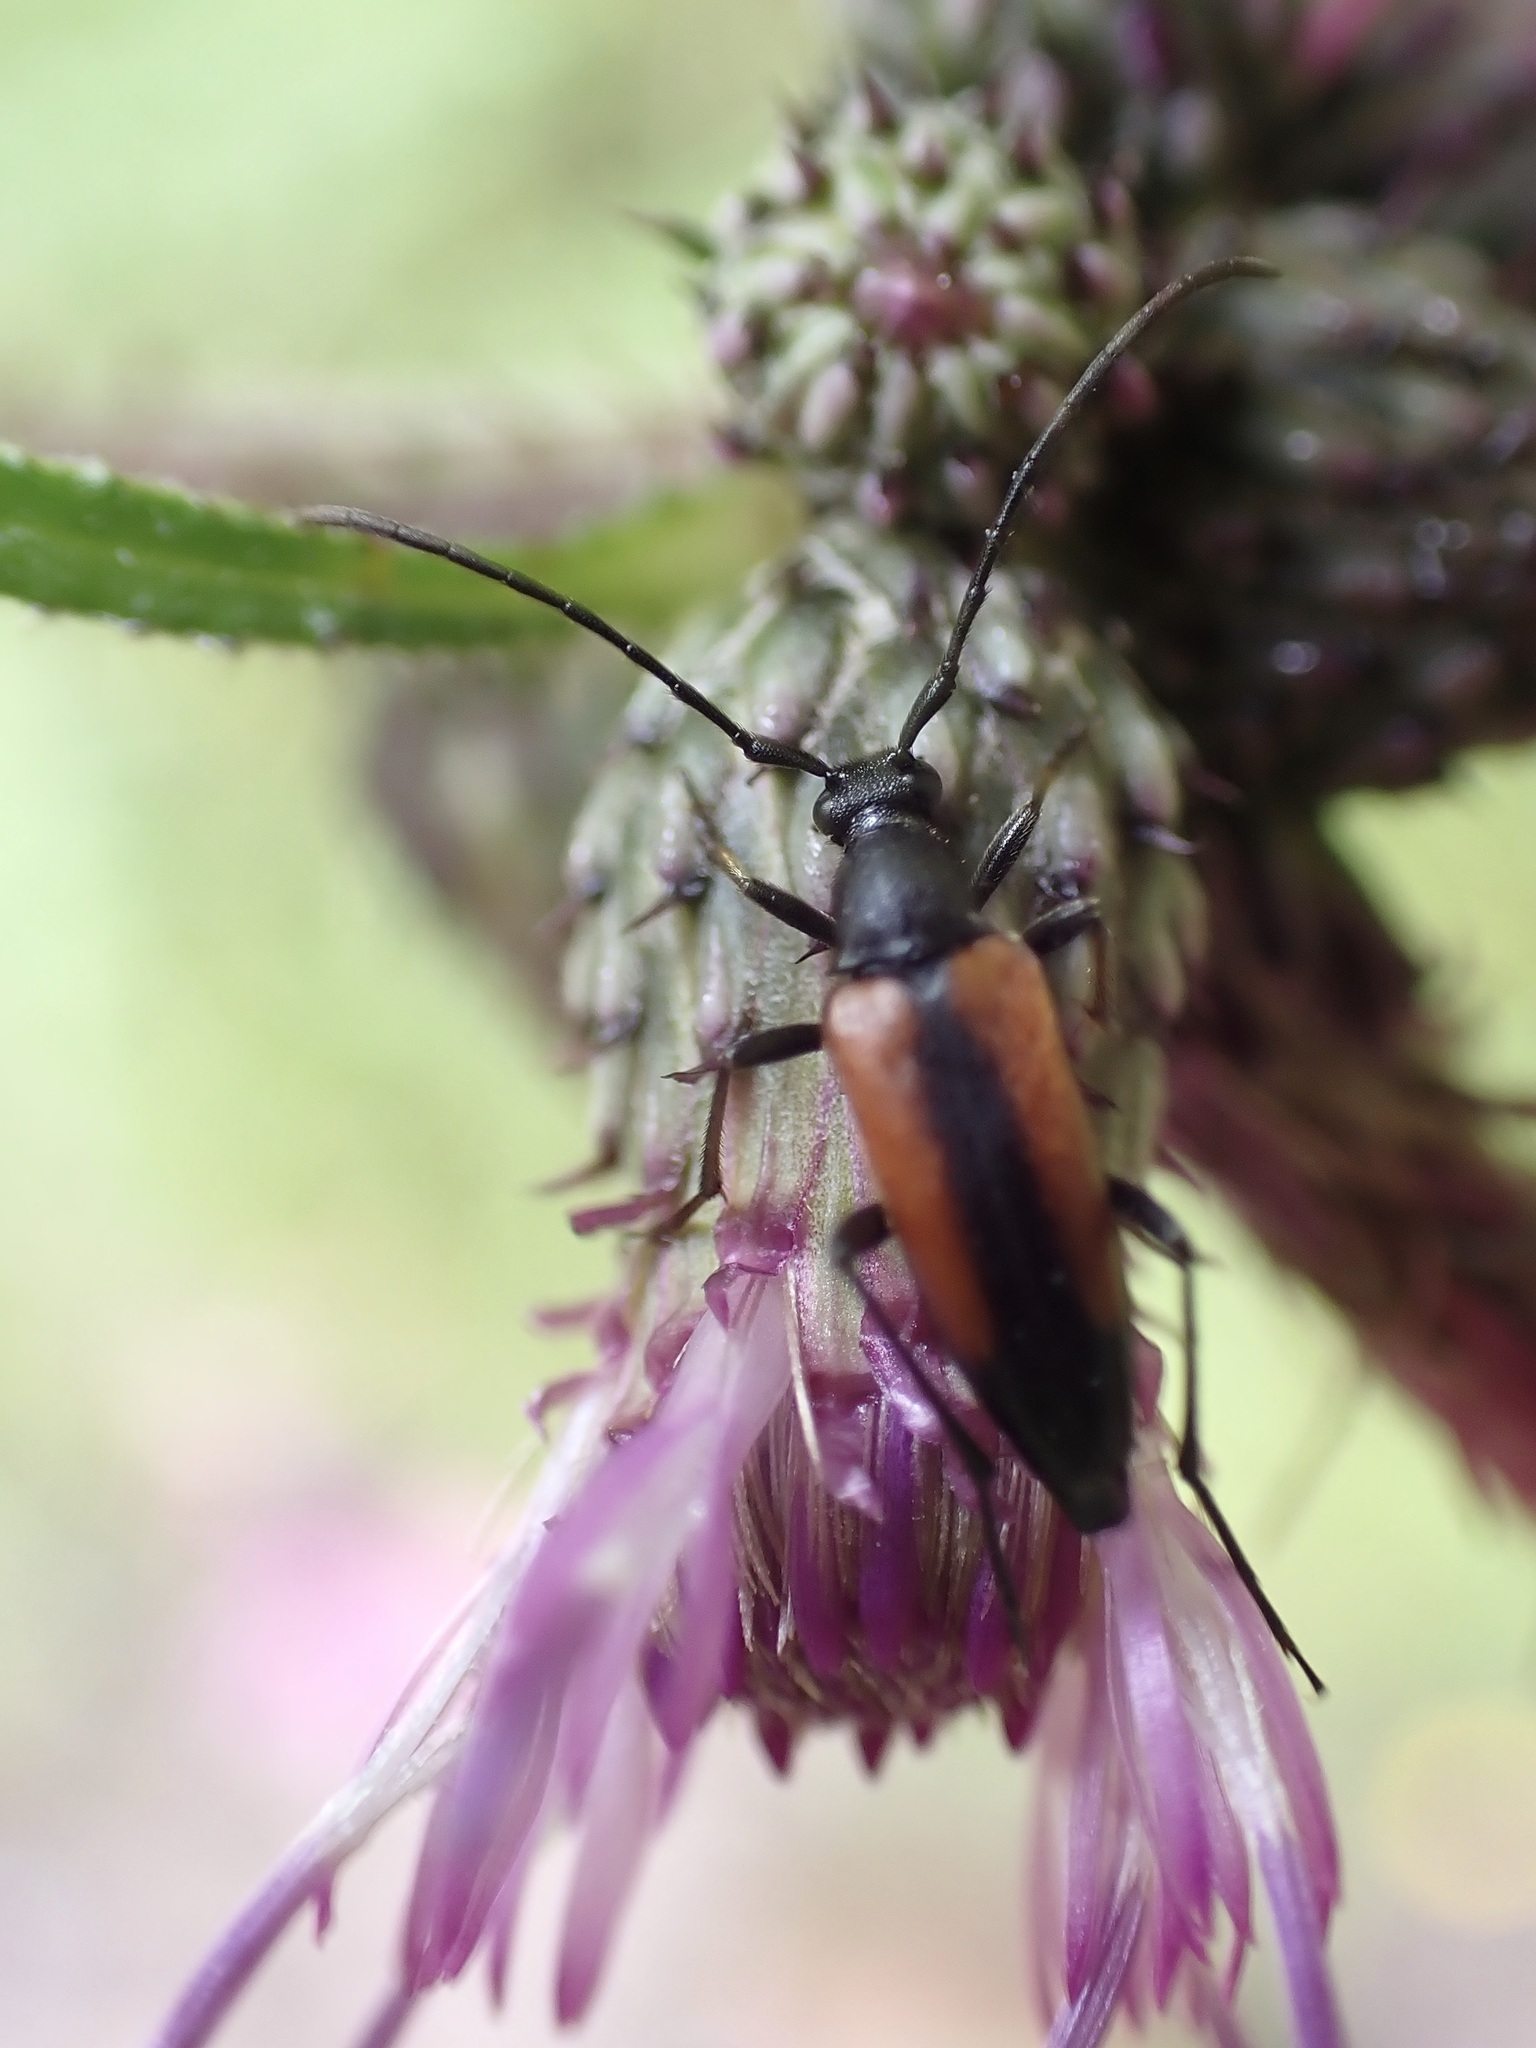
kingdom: Animalia
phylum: Arthropoda
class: Insecta
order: Coleoptera
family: Cerambycidae
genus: Stenurella
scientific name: Stenurella melanura
